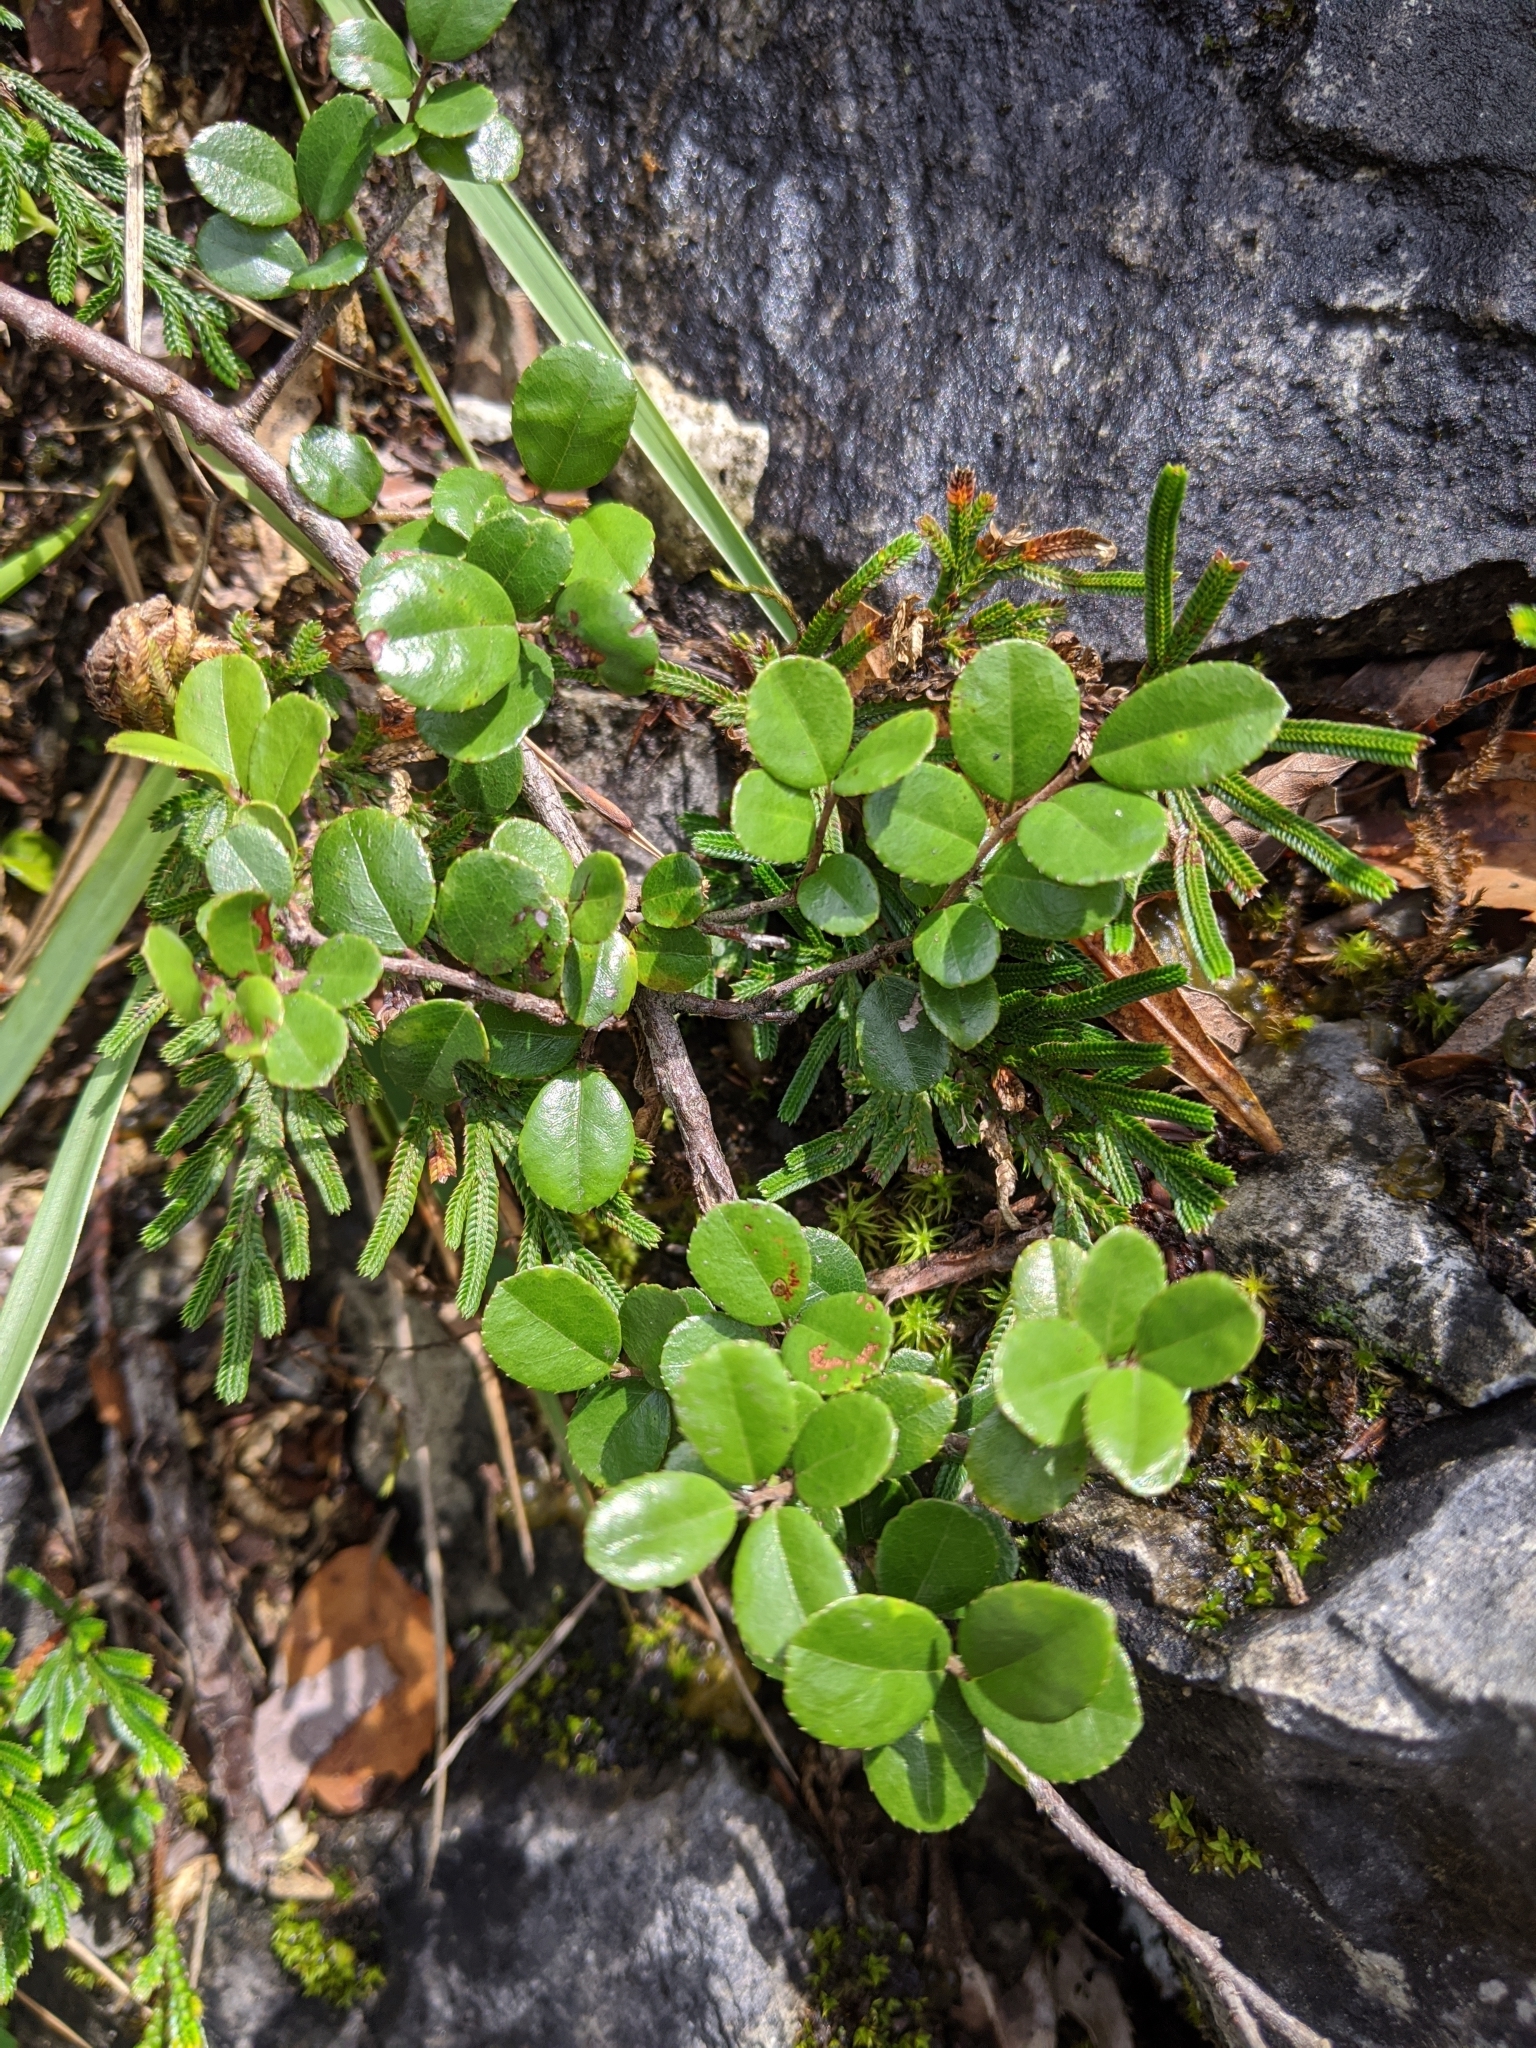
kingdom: Plantae
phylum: Tracheophyta
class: Magnoliopsida
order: Rosales
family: Rhamnaceae
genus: Sageretia
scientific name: Sageretia thea
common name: Pauper's-tea
